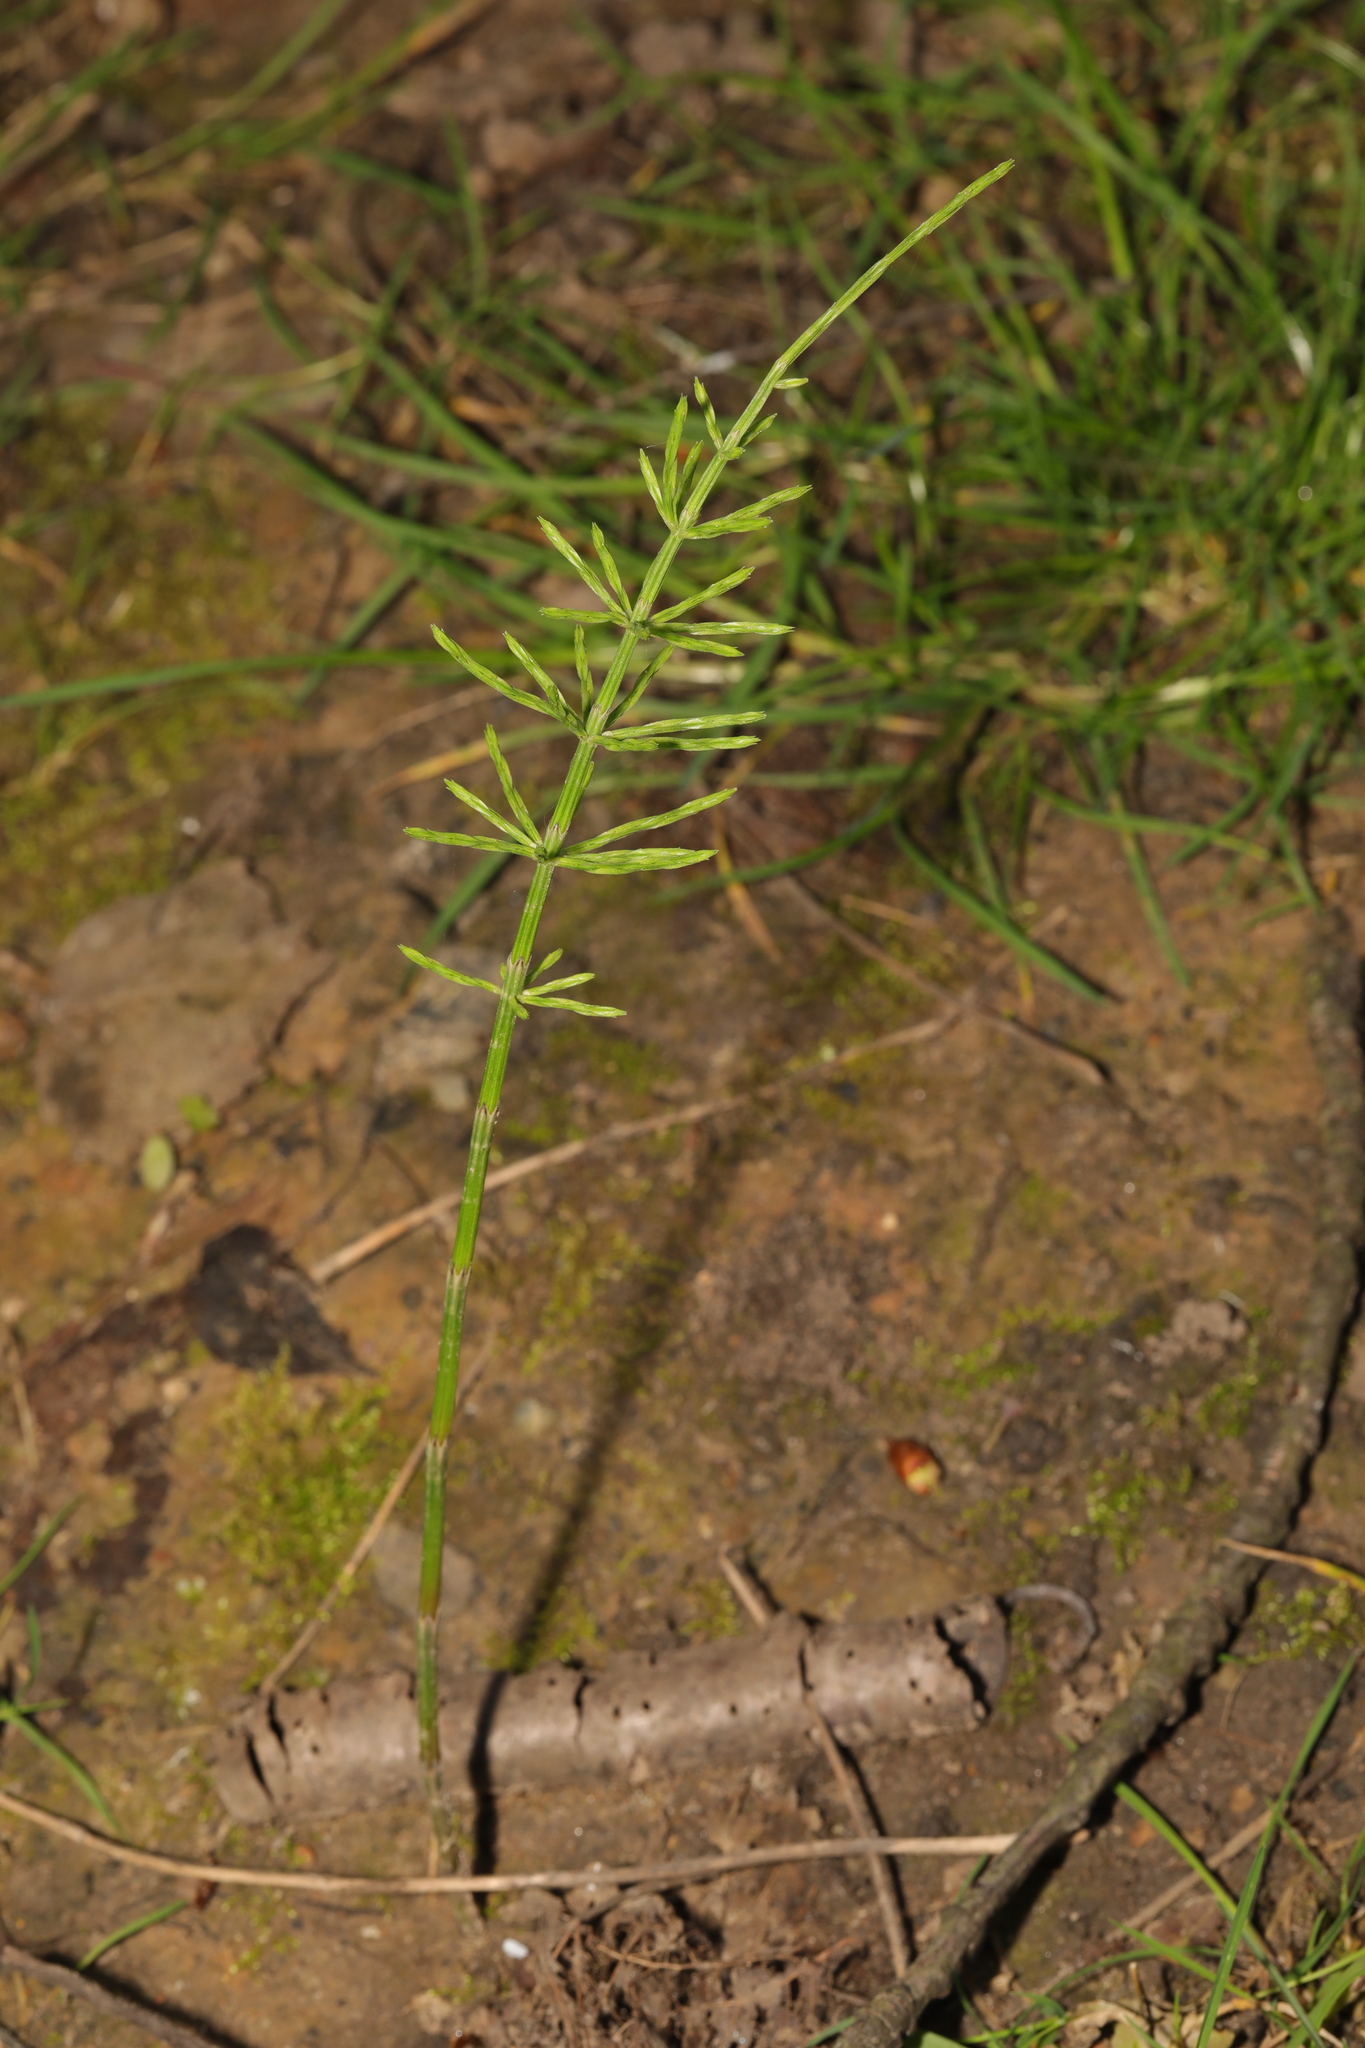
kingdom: Plantae
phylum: Tracheophyta
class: Polypodiopsida
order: Equisetales
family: Equisetaceae
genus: Equisetum
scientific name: Equisetum arvense
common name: Field horsetail
